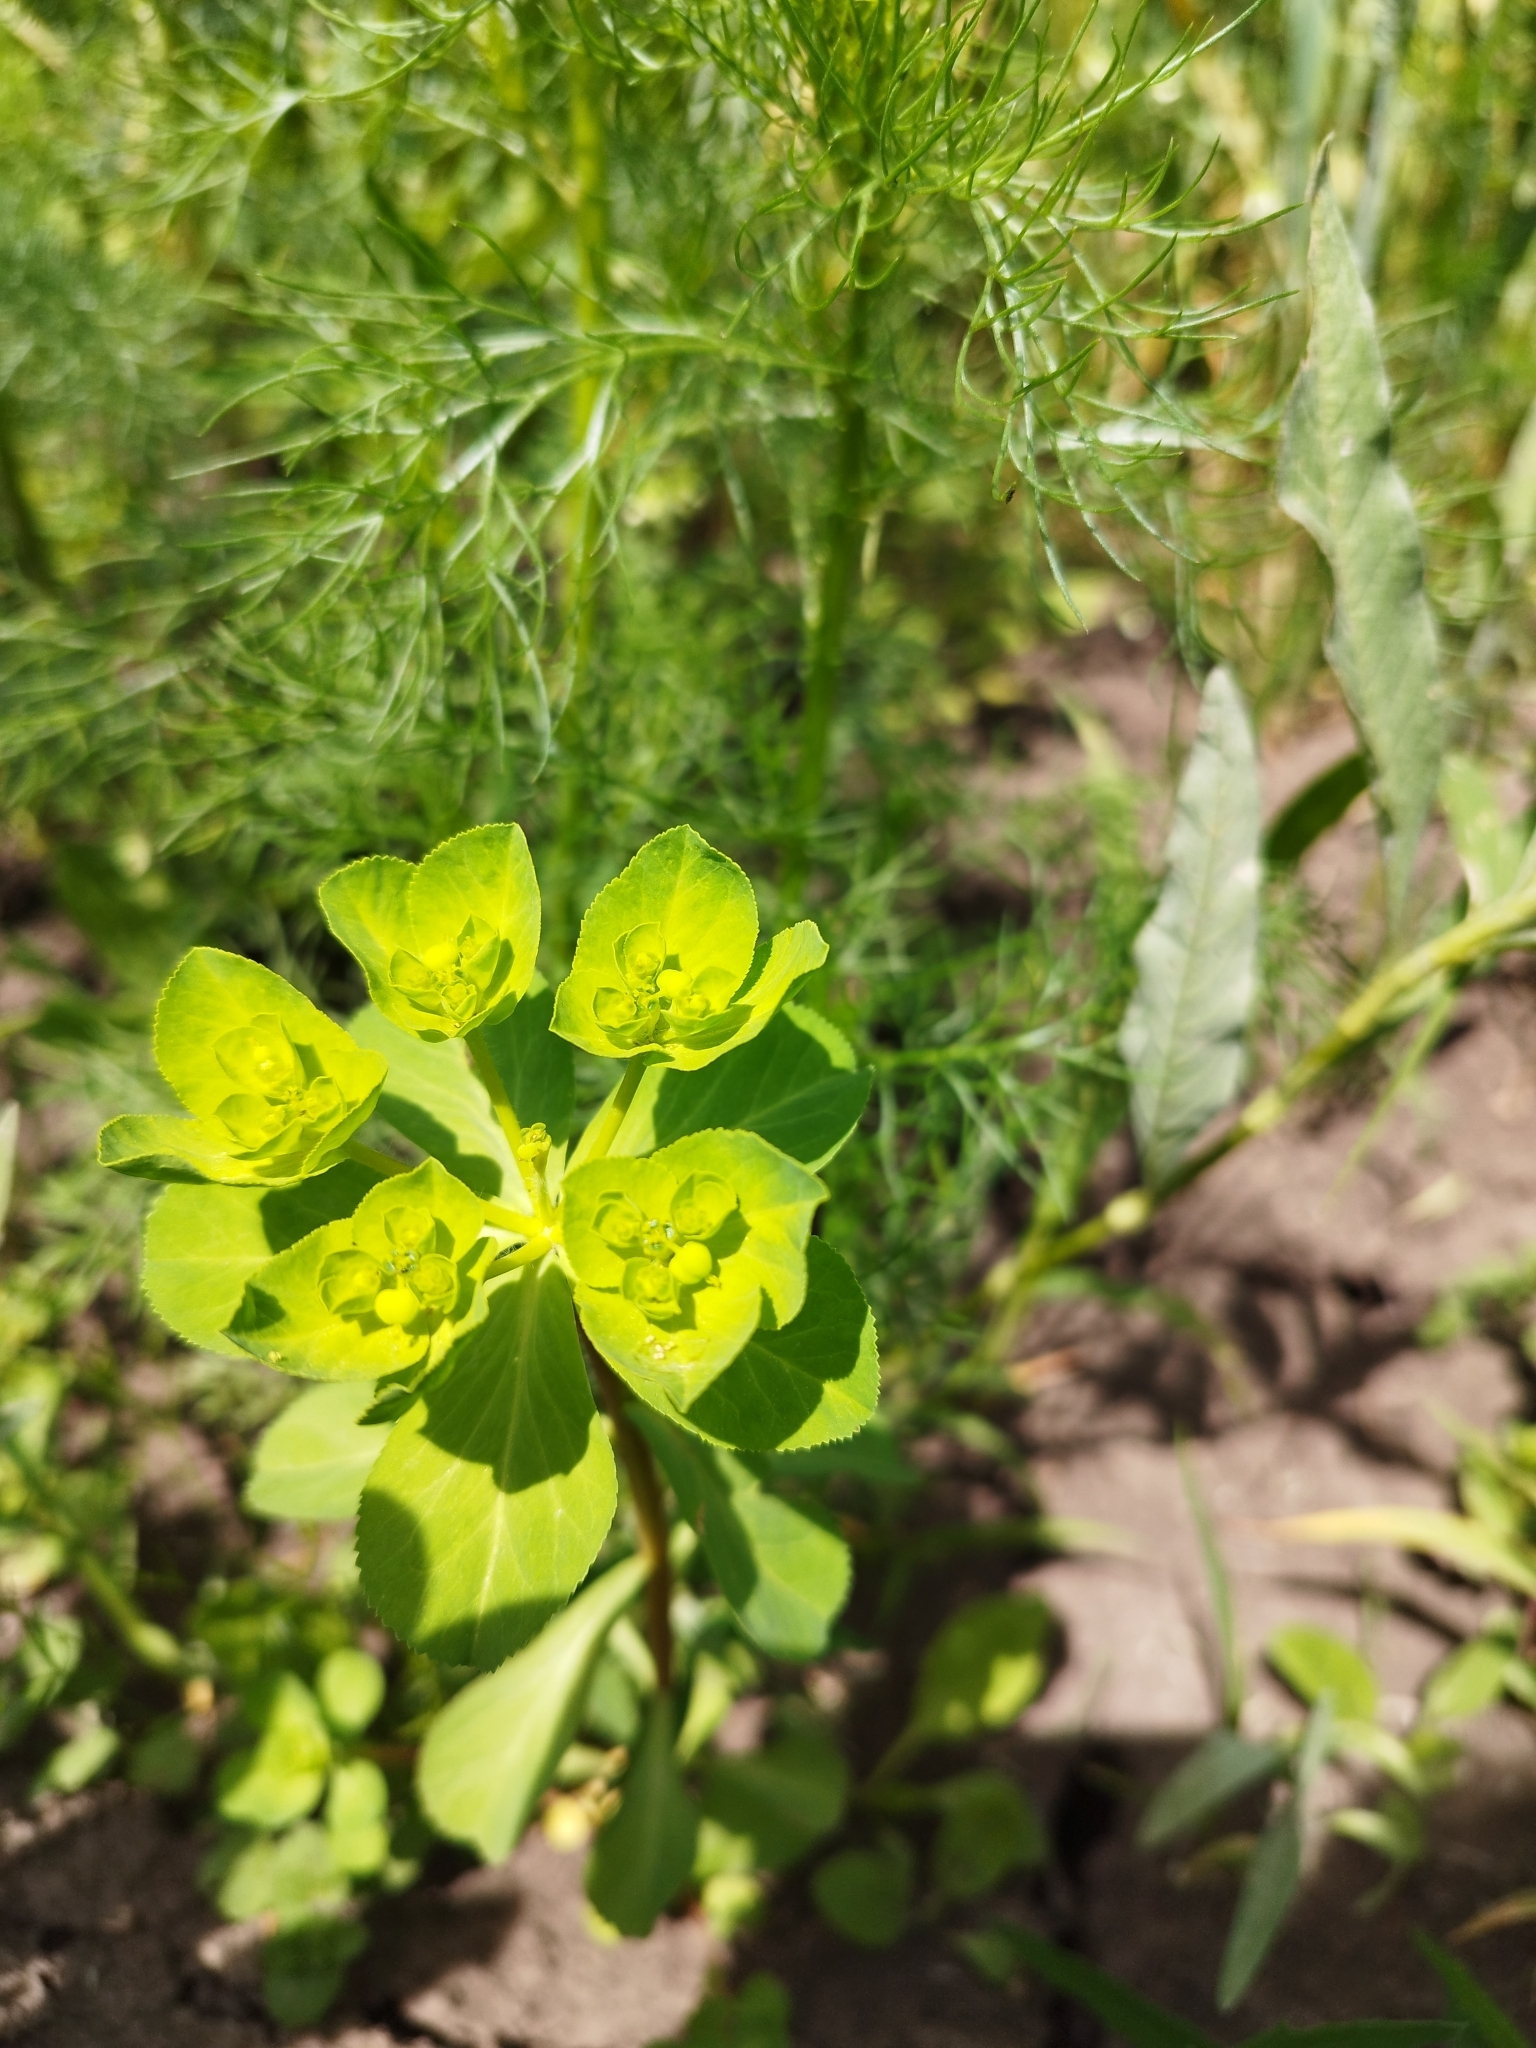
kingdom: Plantae
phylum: Tracheophyta
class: Magnoliopsida
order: Malpighiales
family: Euphorbiaceae
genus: Euphorbia
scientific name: Euphorbia helioscopia
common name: Sun spurge
